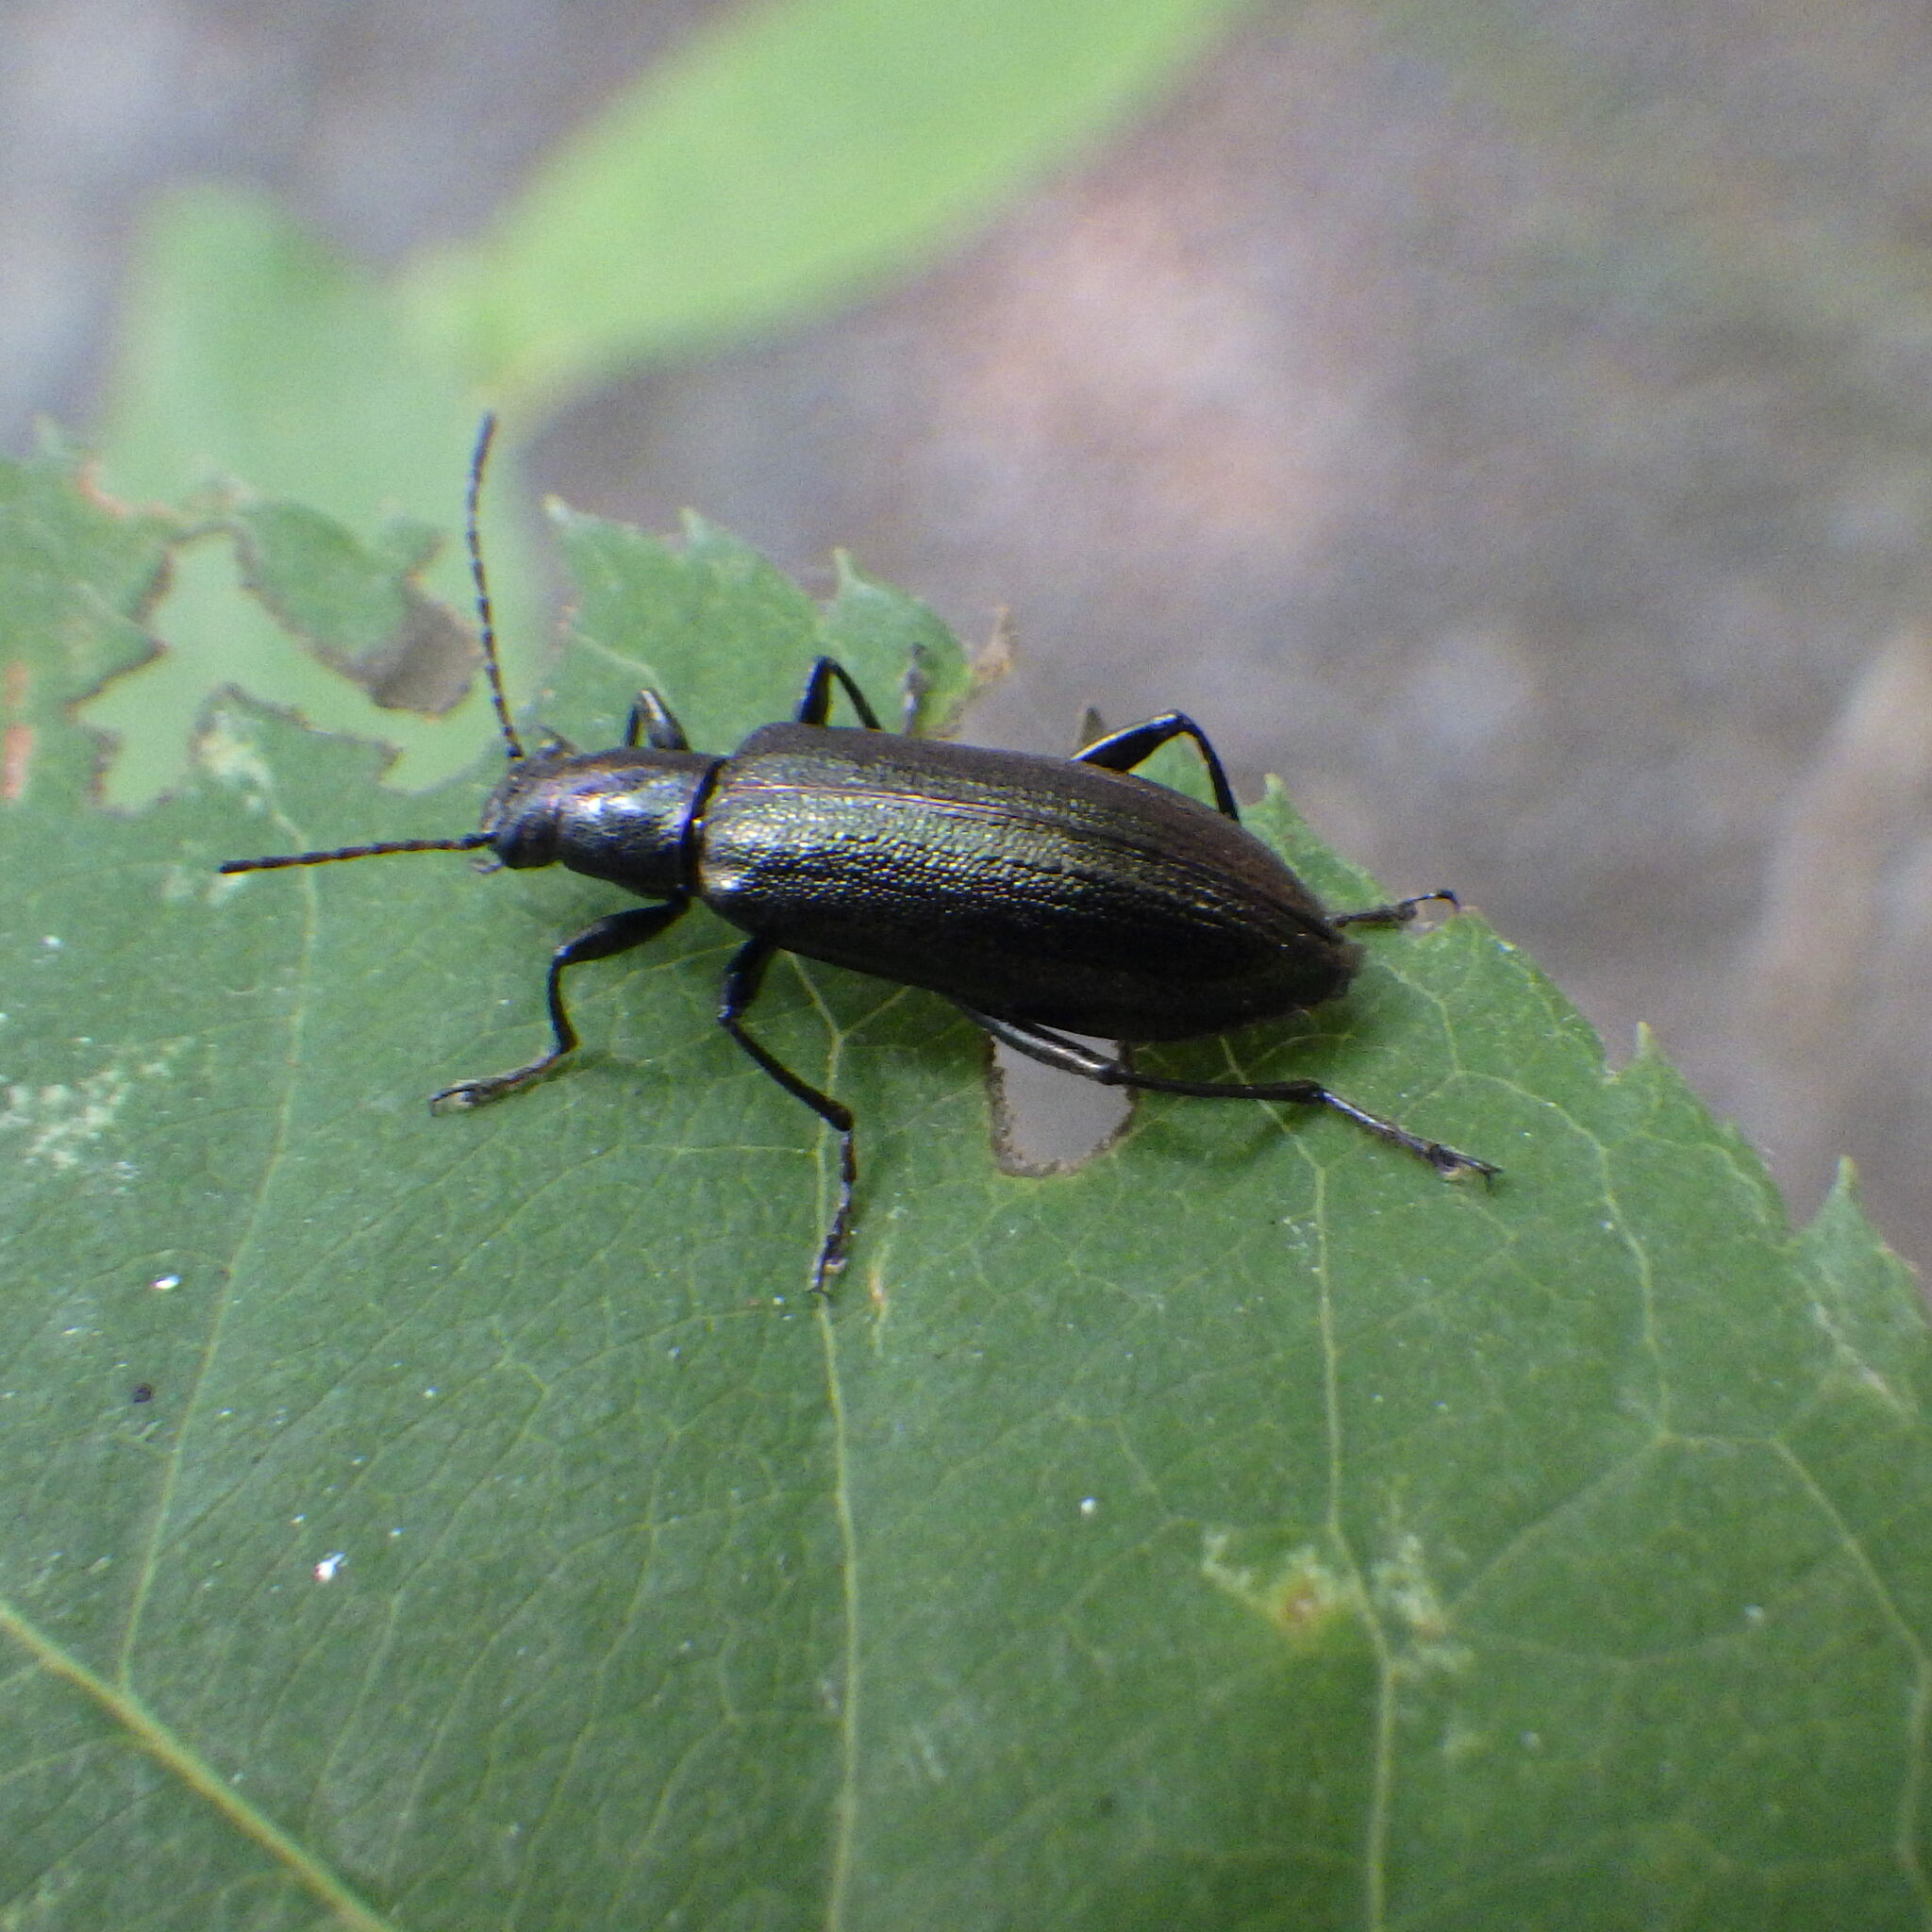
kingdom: Animalia
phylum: Arthropoda
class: Insecta
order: Coleoptera
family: Tenebrionidae
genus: Arthromacra
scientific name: Arthromacra aenea
